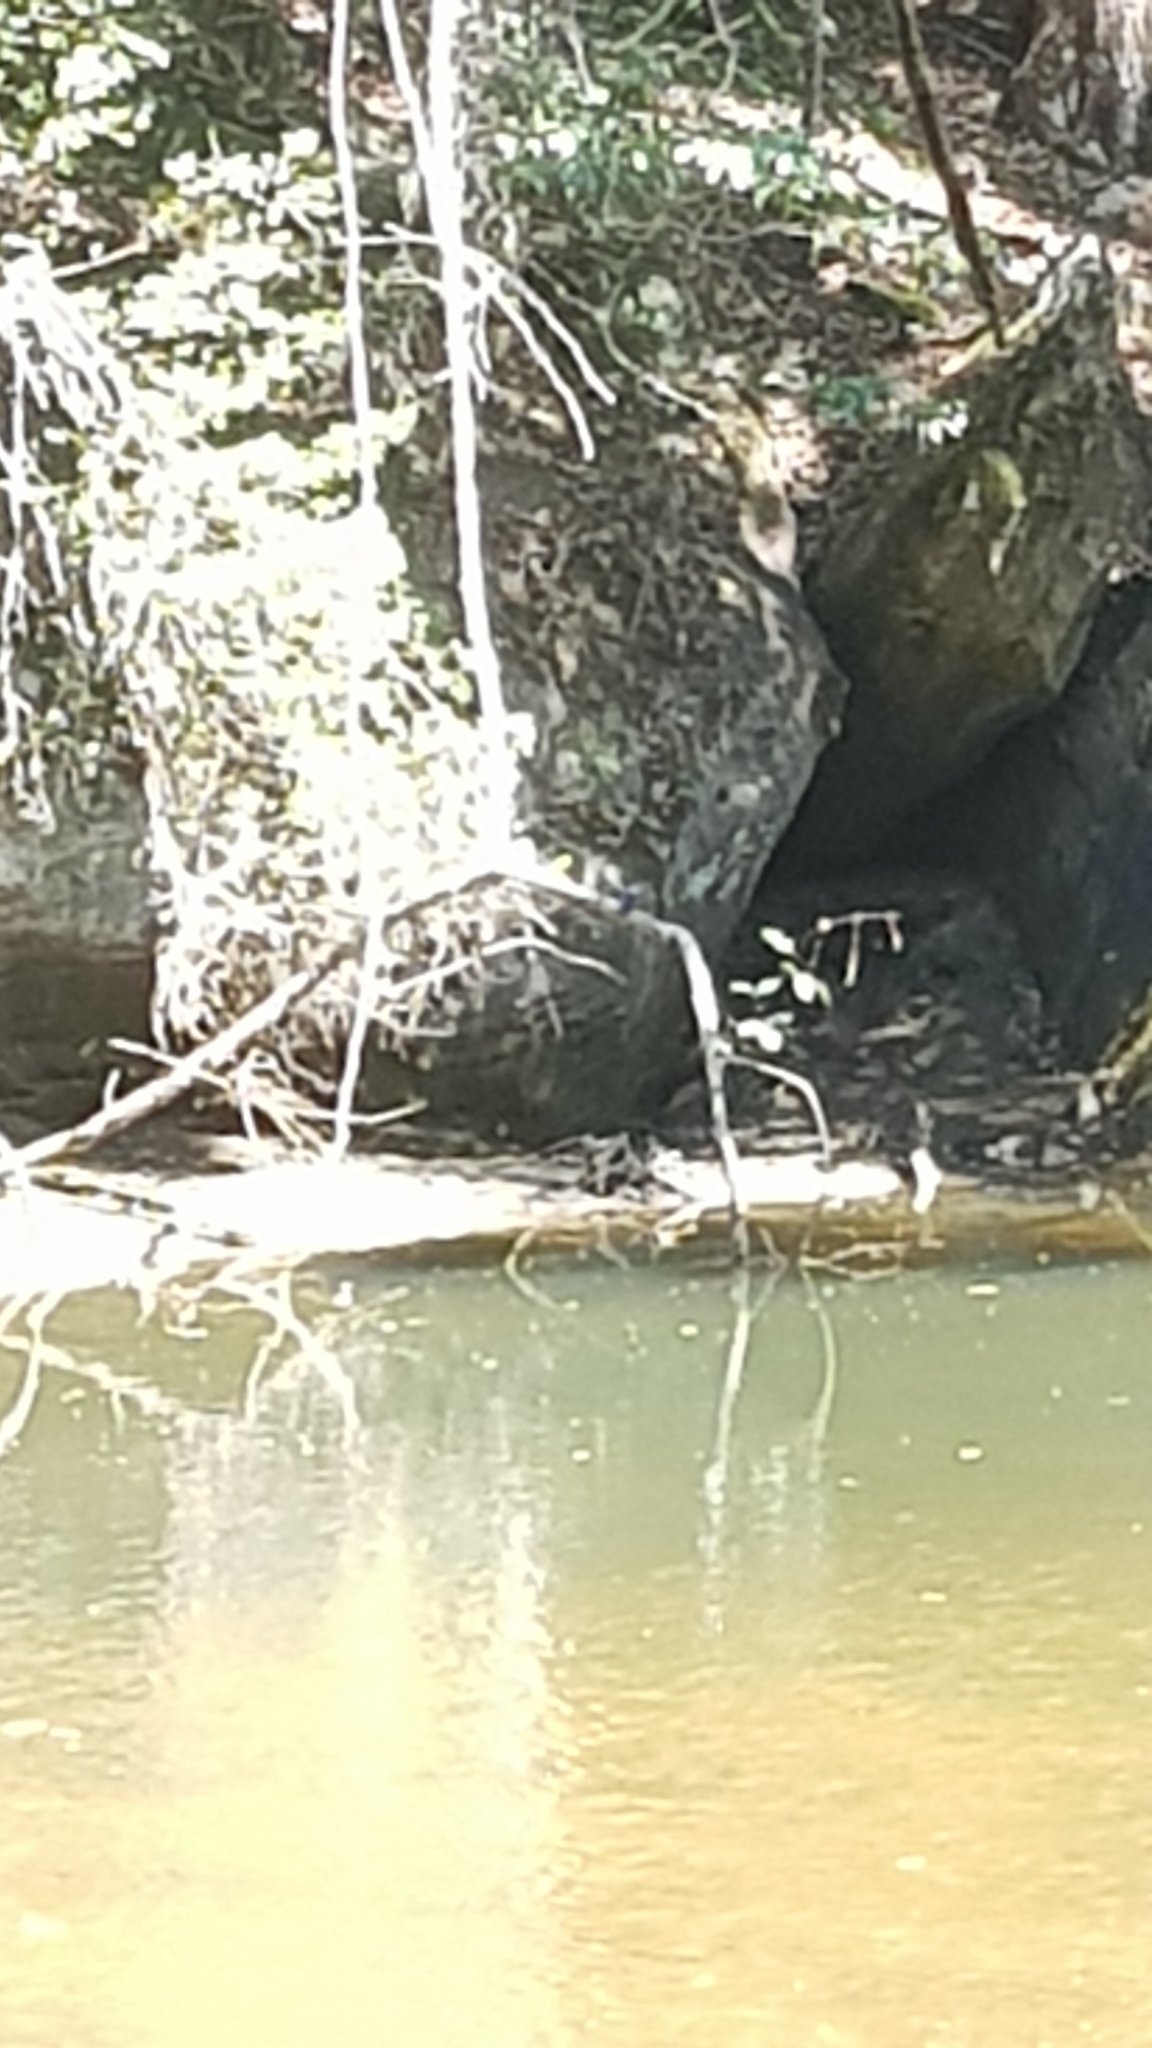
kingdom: Animalia
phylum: Chordata
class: Aves
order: Coraciiformes
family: Alcedinidae
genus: Ceyx
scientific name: Ceyx azureus
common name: Azure kingfisher
